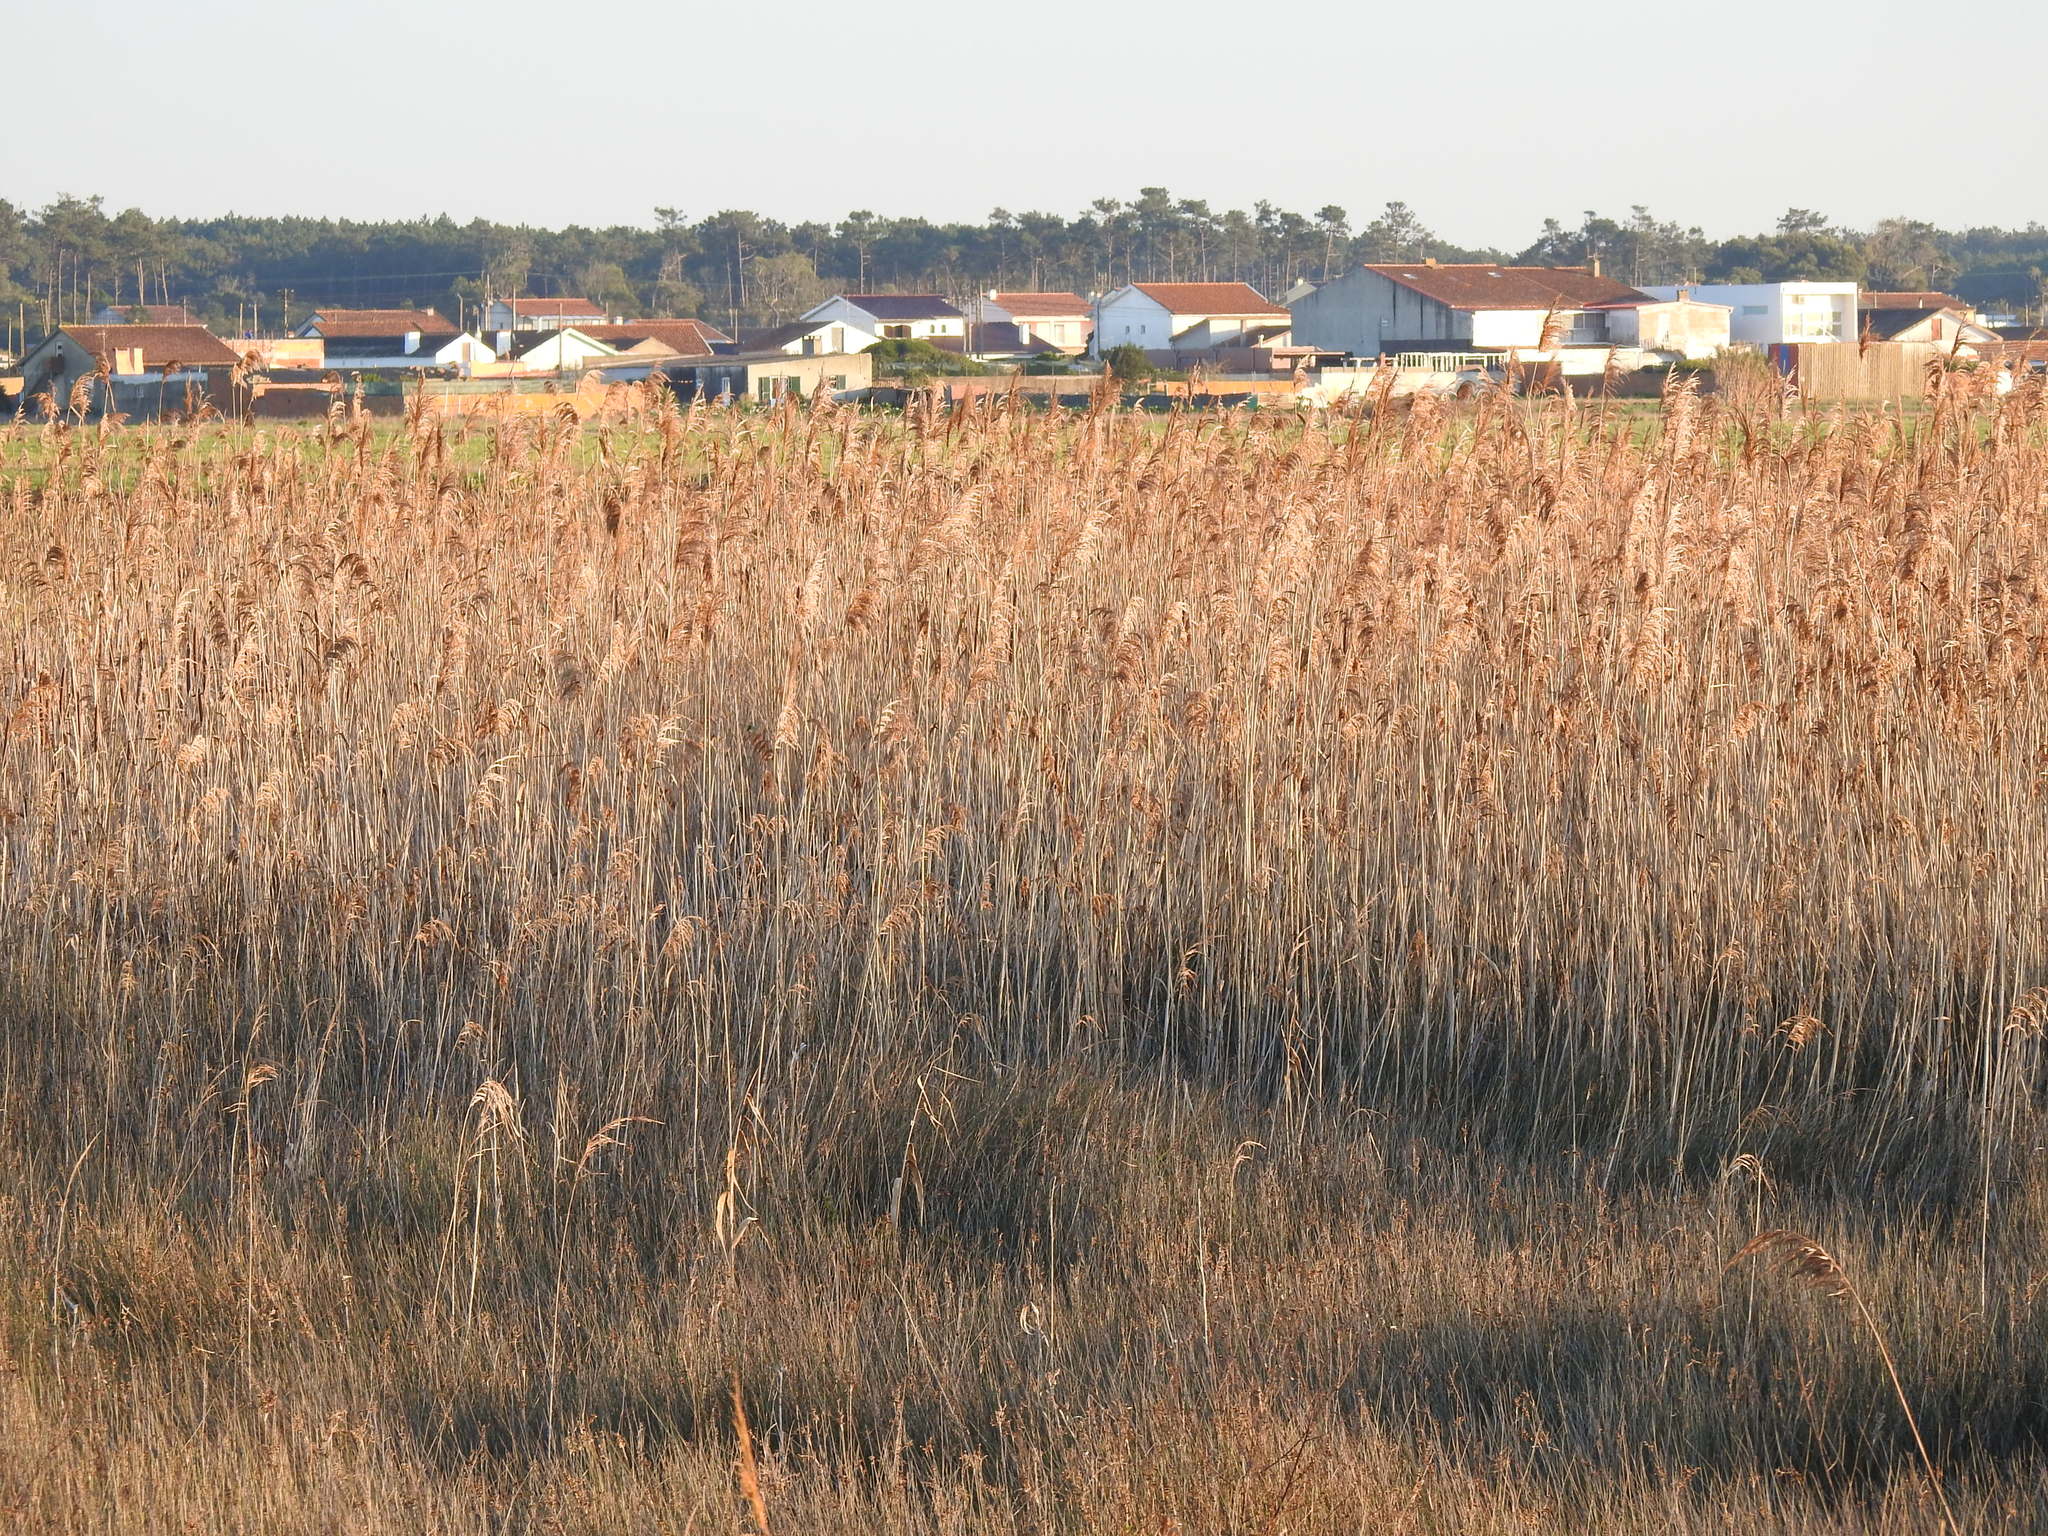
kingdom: Plantae
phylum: Tracheophyta
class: Liliopsida
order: Poales
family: Poaceae
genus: Phragmites
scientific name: Phragmites australis
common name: Common reed
